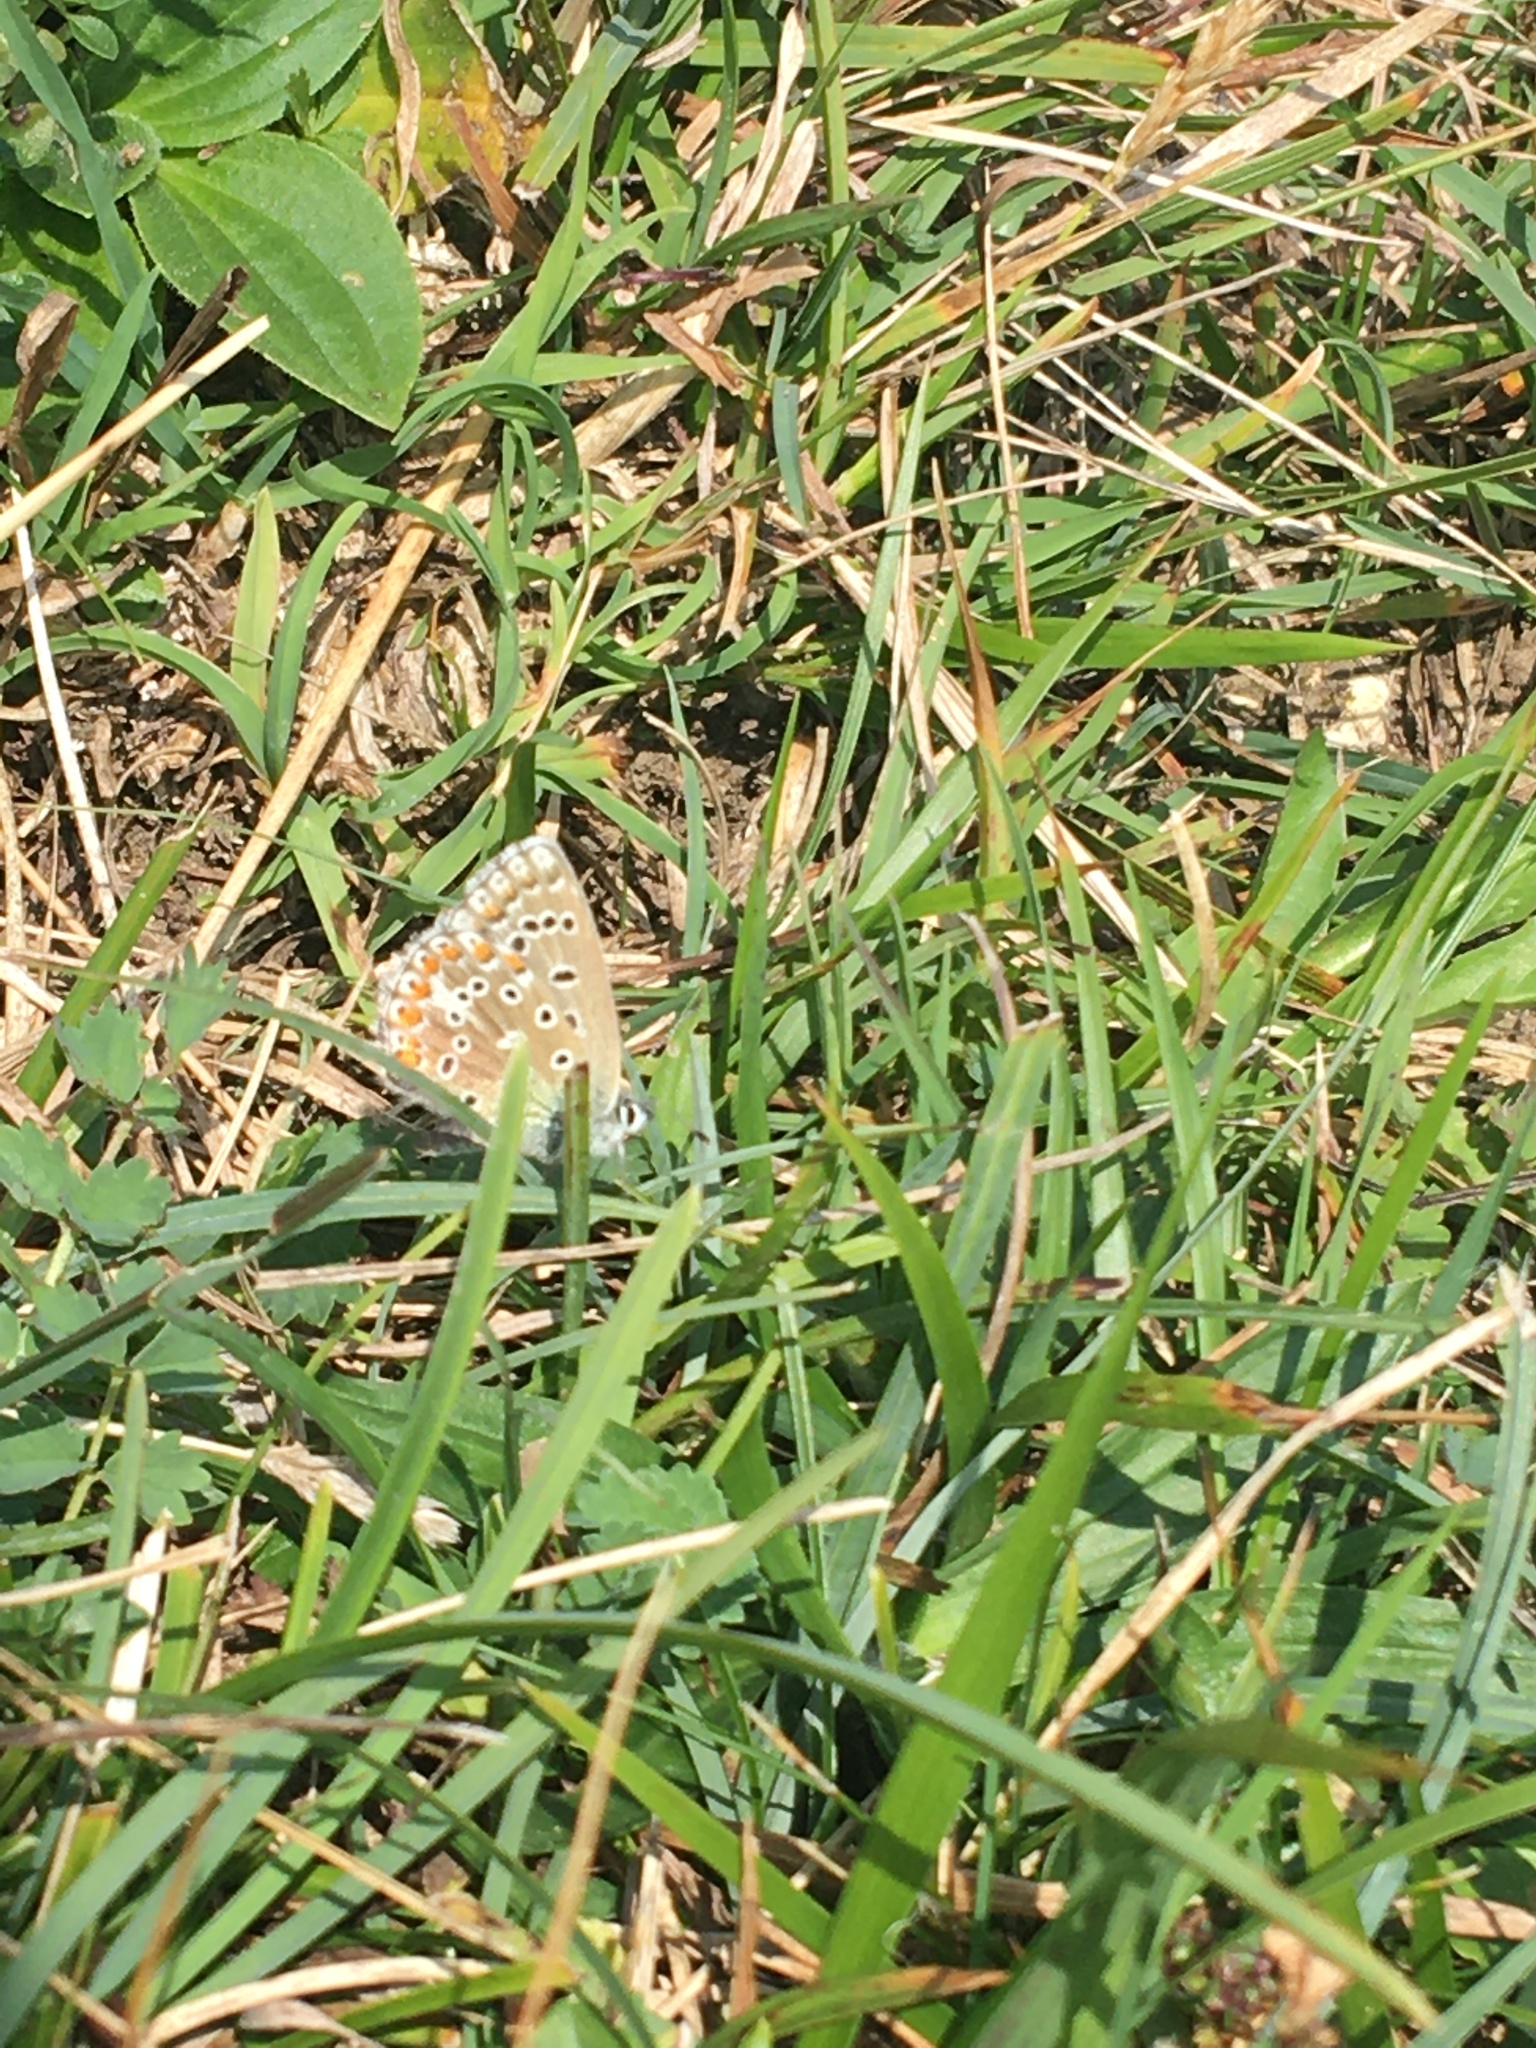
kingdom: Animalia
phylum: Arthropoda
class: Insecta
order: Lepidoptera
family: Lycaenidae
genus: Lysandra
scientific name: Lysandra bellargus
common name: Adonis blue
